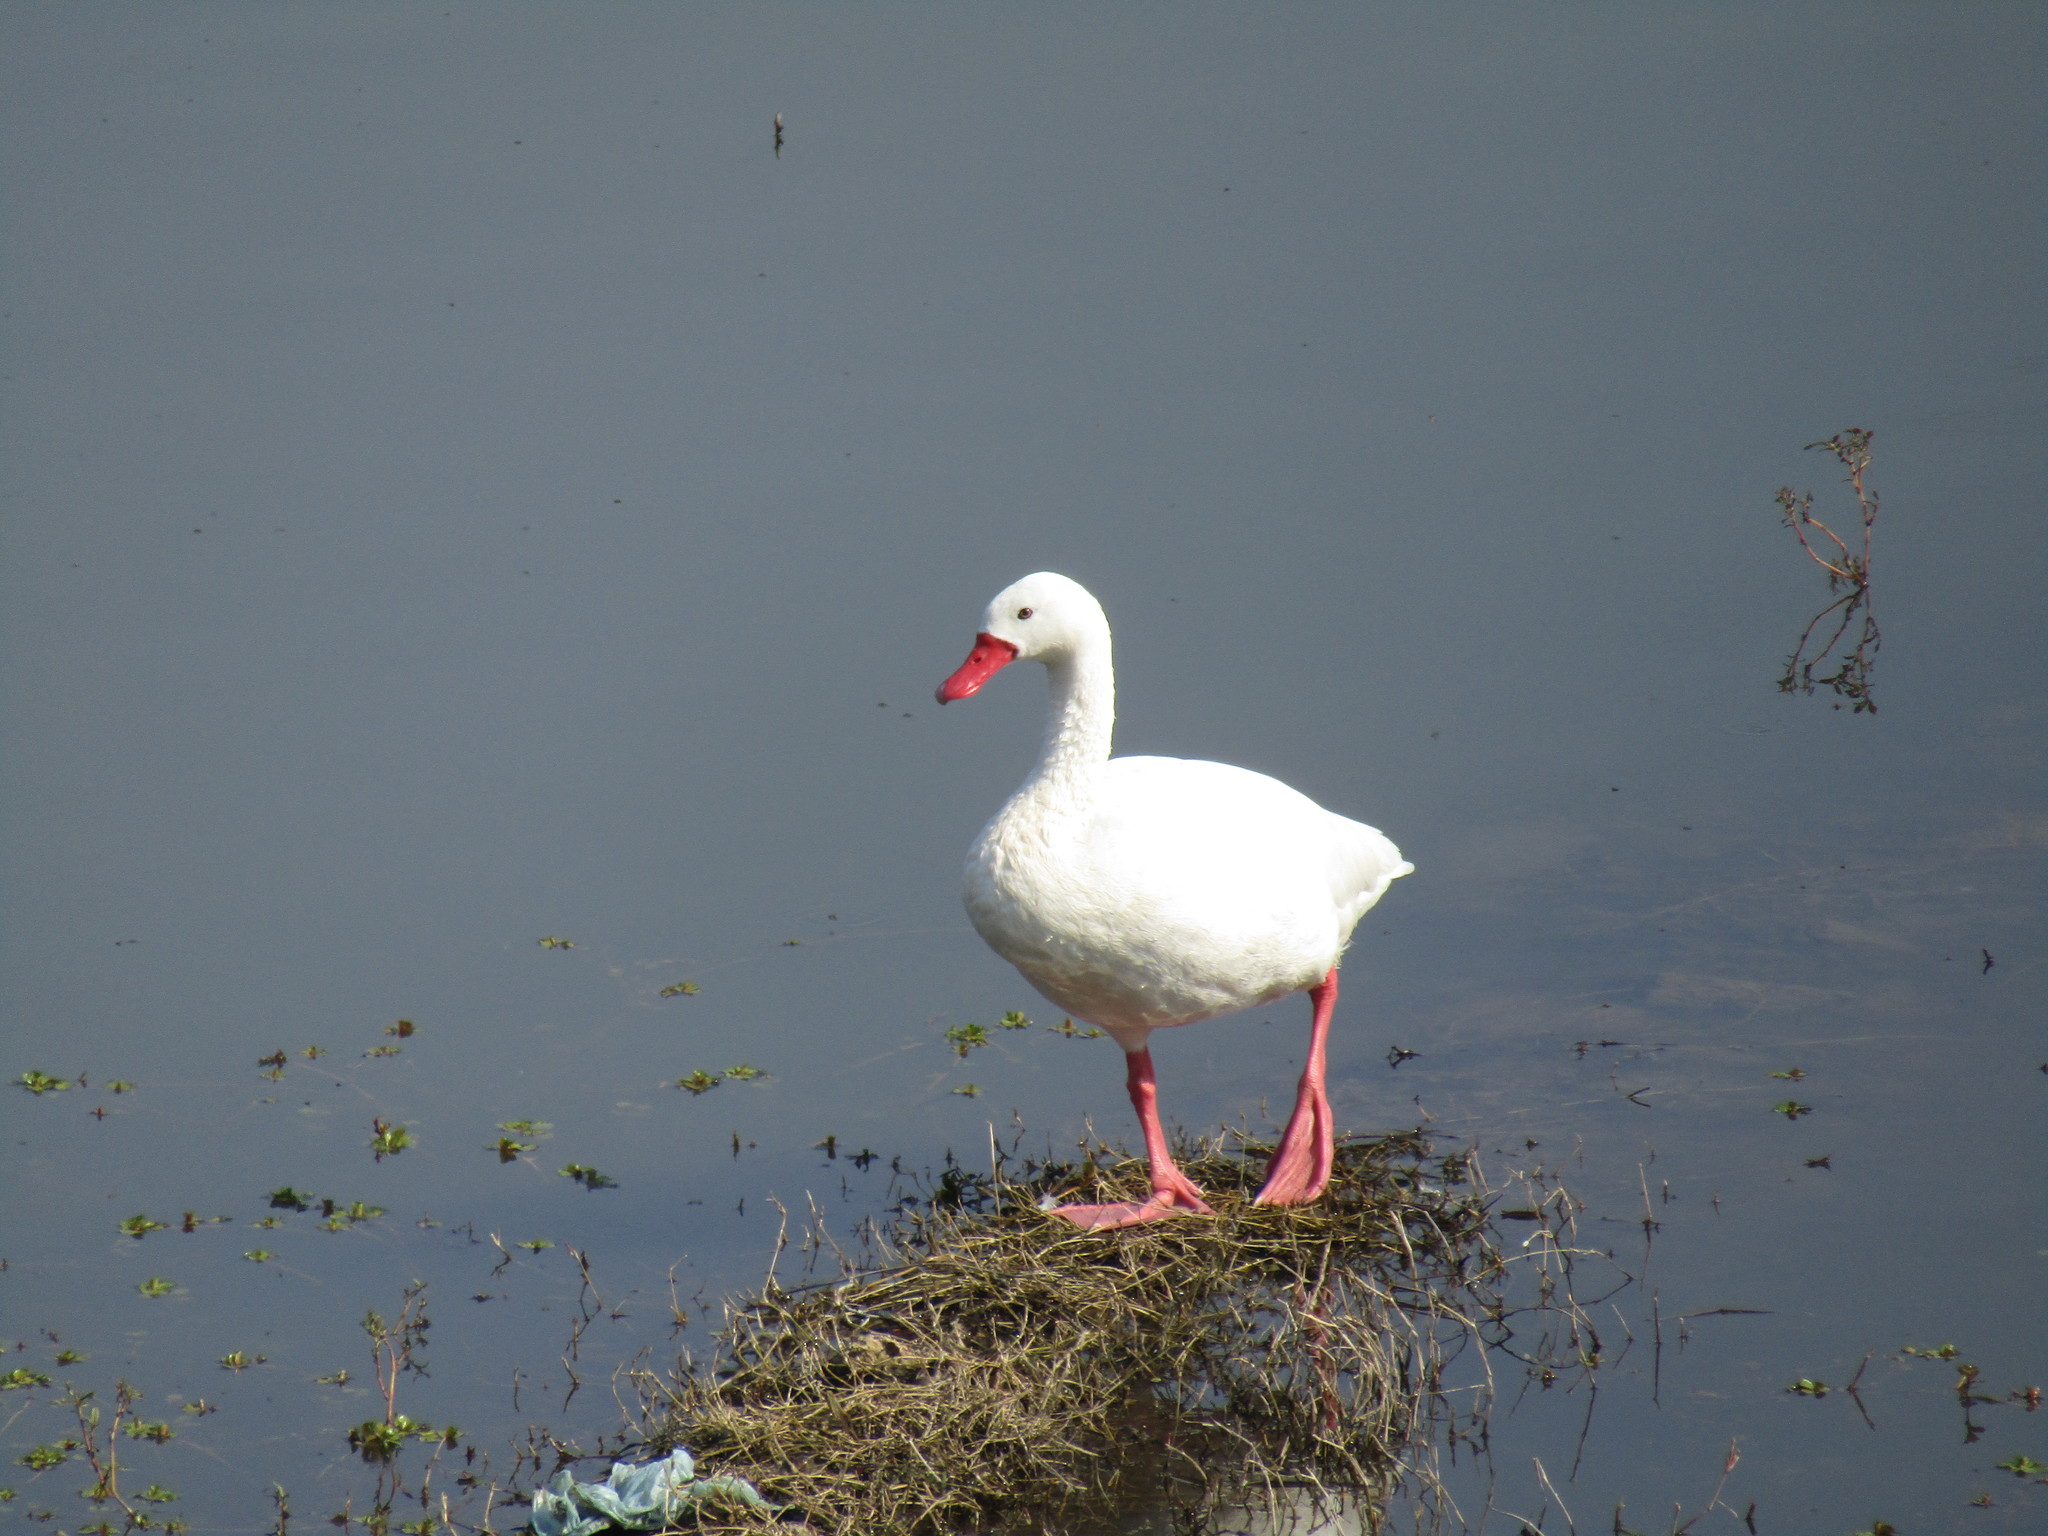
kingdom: Animalia
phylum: Chordata
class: Aves
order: Anseriformes
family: Anatidae
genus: Coscoroba
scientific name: Coscoroba coscoroba
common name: Coscoroba swan
